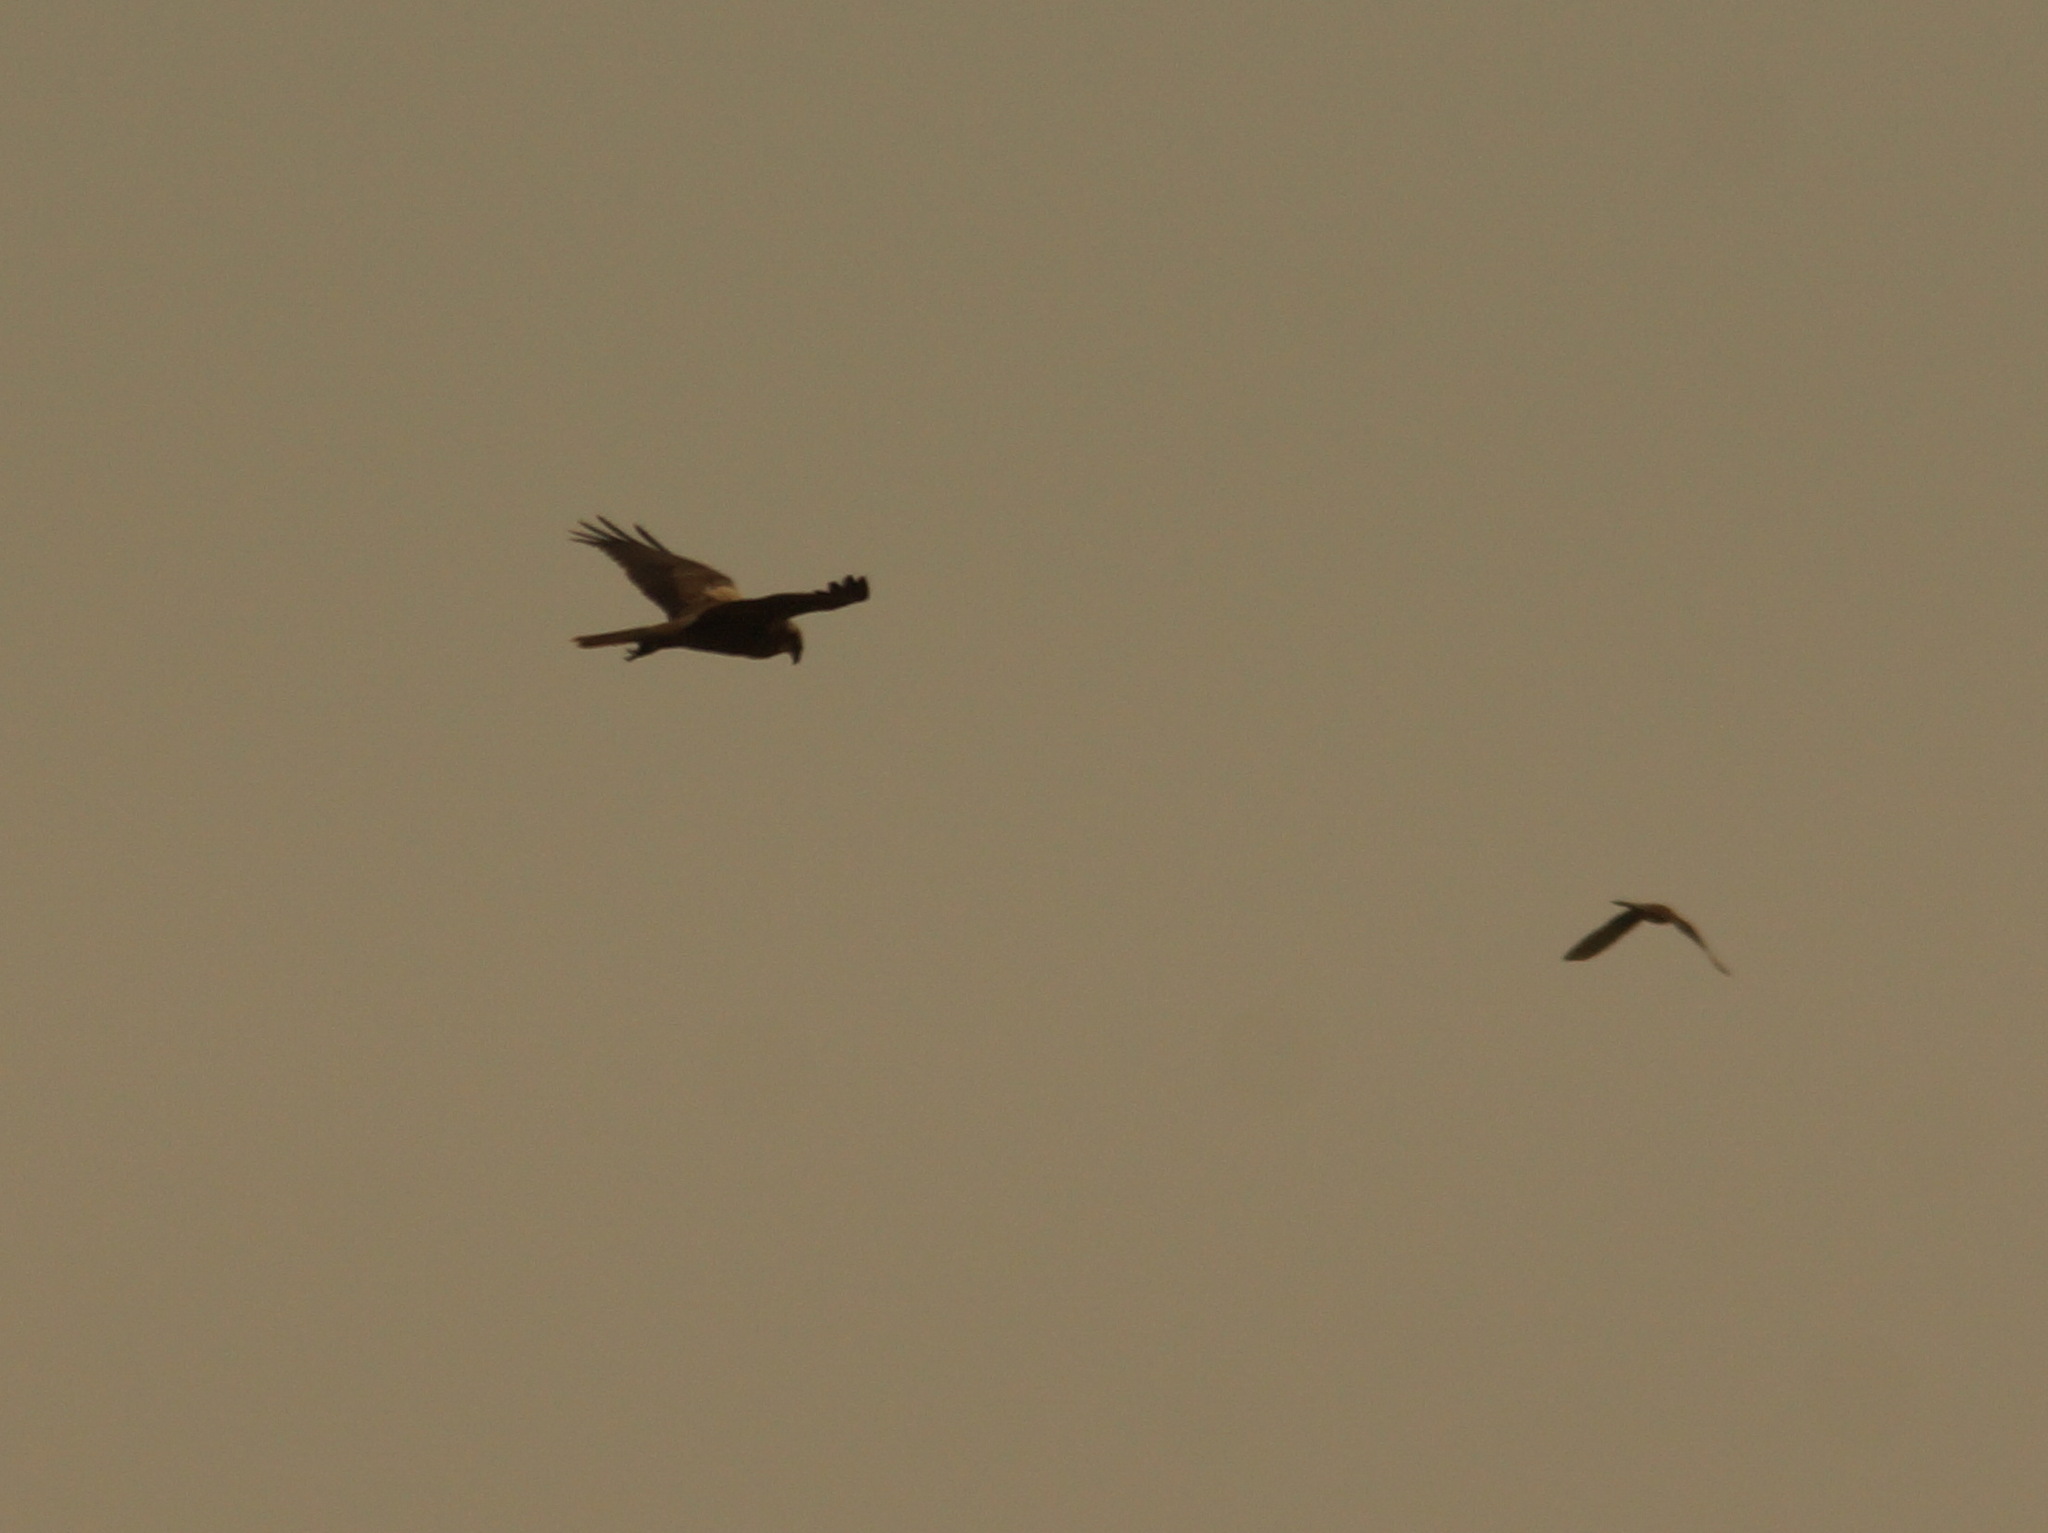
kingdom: Animalia
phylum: Chordata
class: Aves
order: Accipitriformes
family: Accipitridae
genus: Circus
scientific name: Circus aeruginosus
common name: Western marsh harrier
